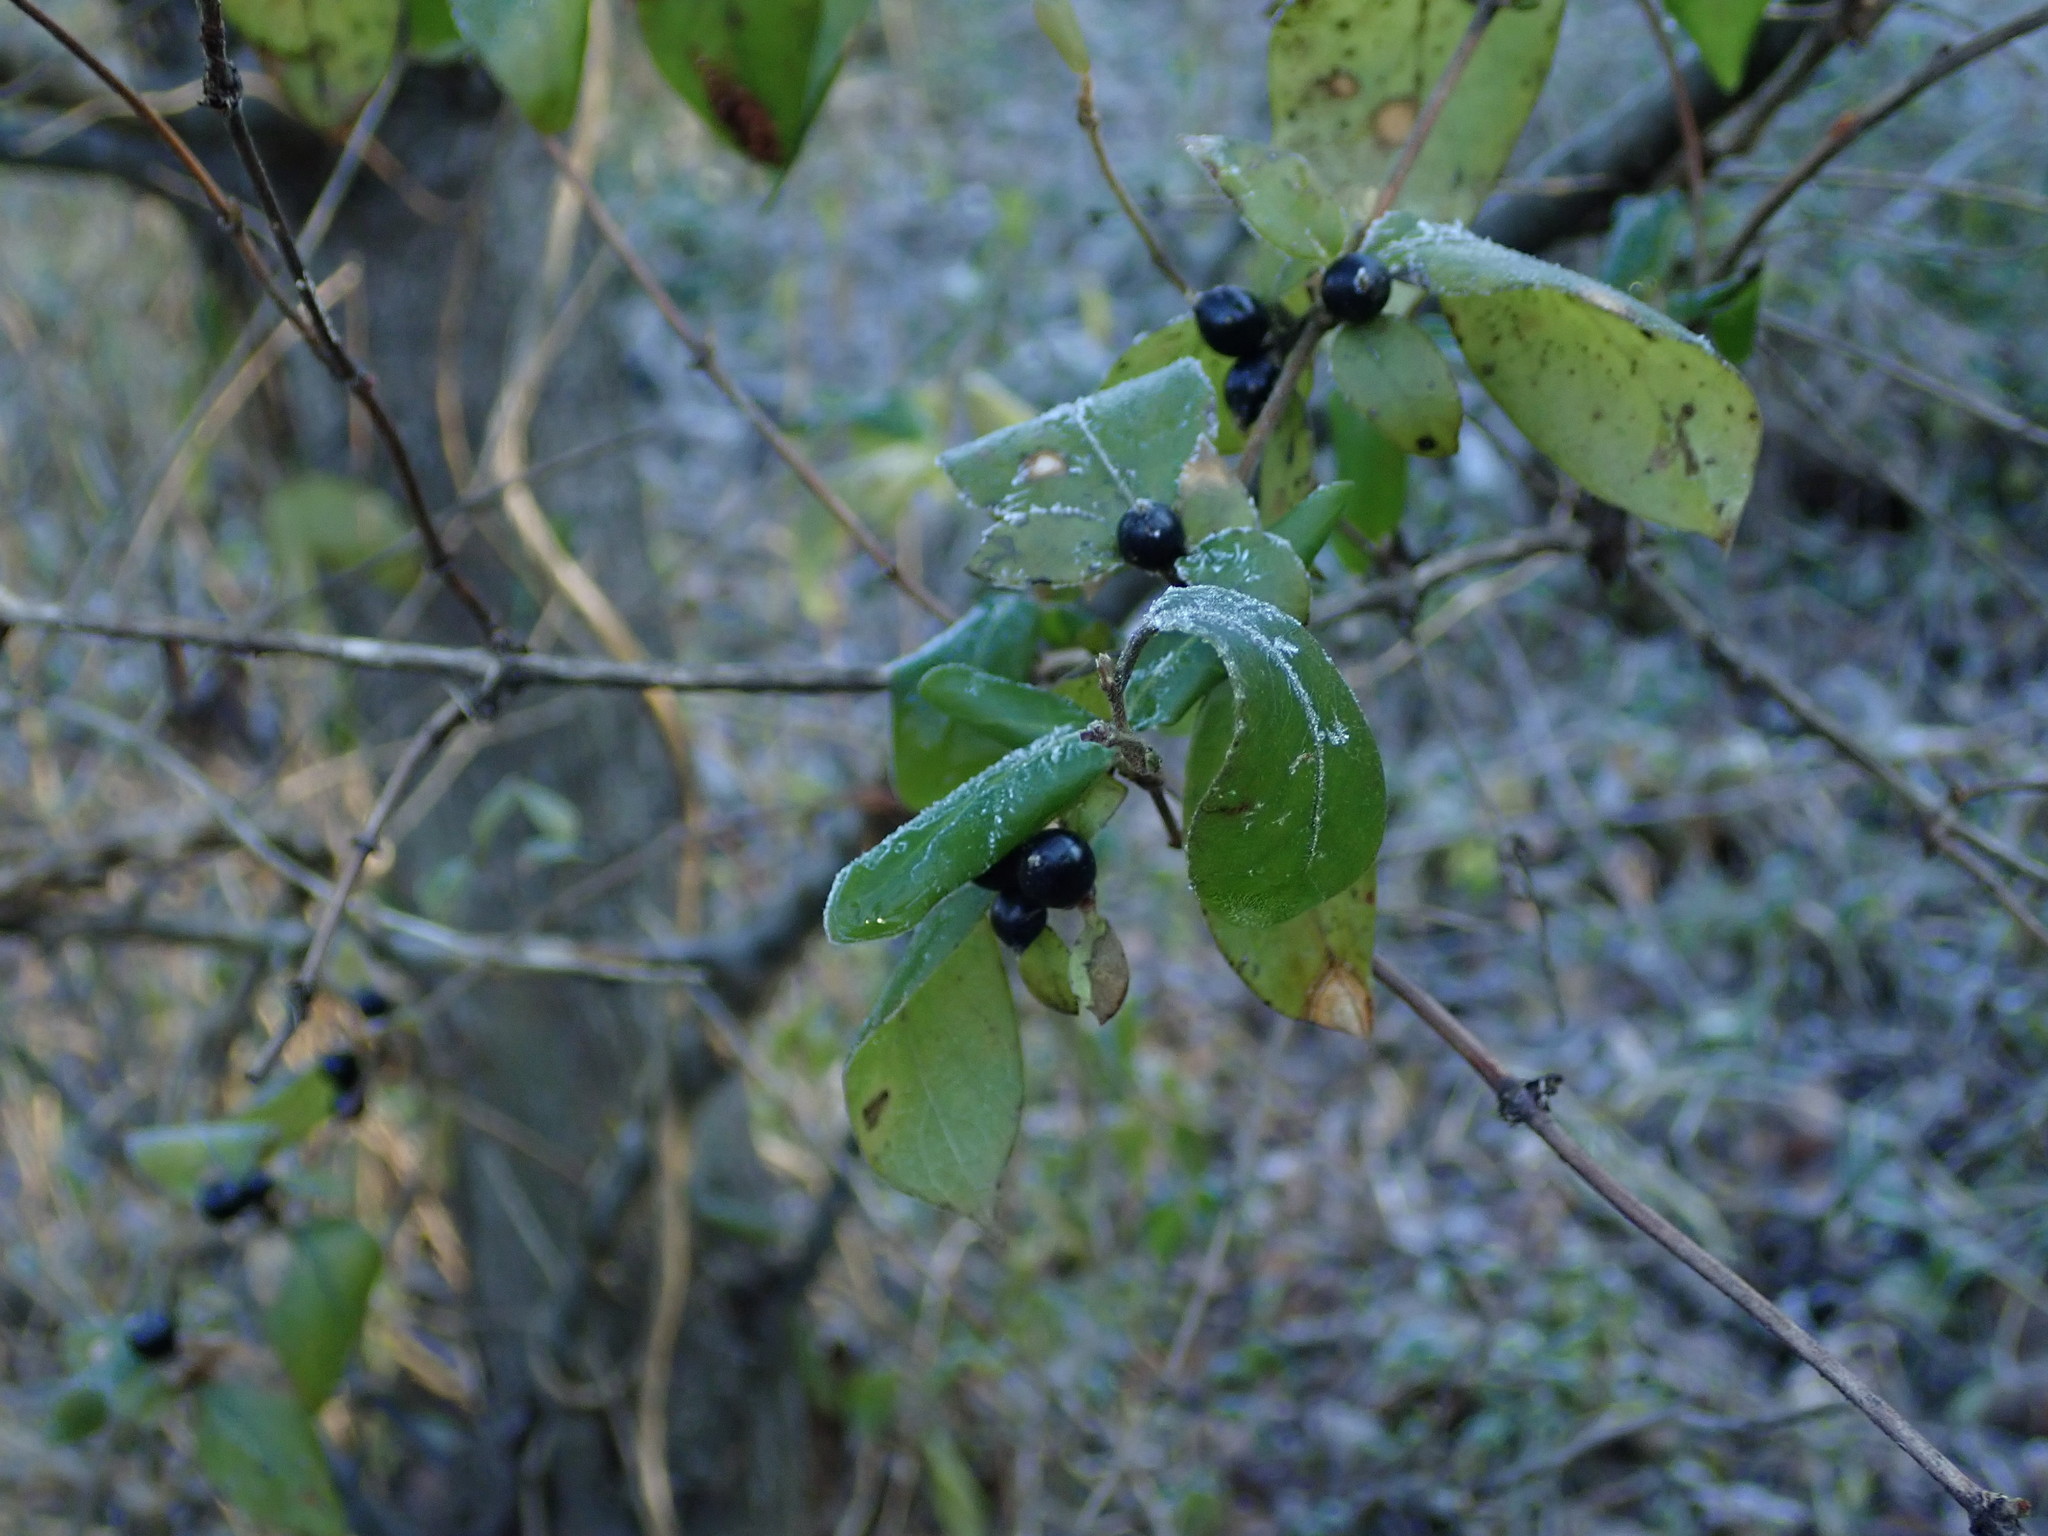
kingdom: Plantae
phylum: Tracheophyta
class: Magnoliopsida
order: Dipsacales
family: Caprifoliaceae
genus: Lonicera
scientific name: Lonicera japonica
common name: Japanese honeysuckle
